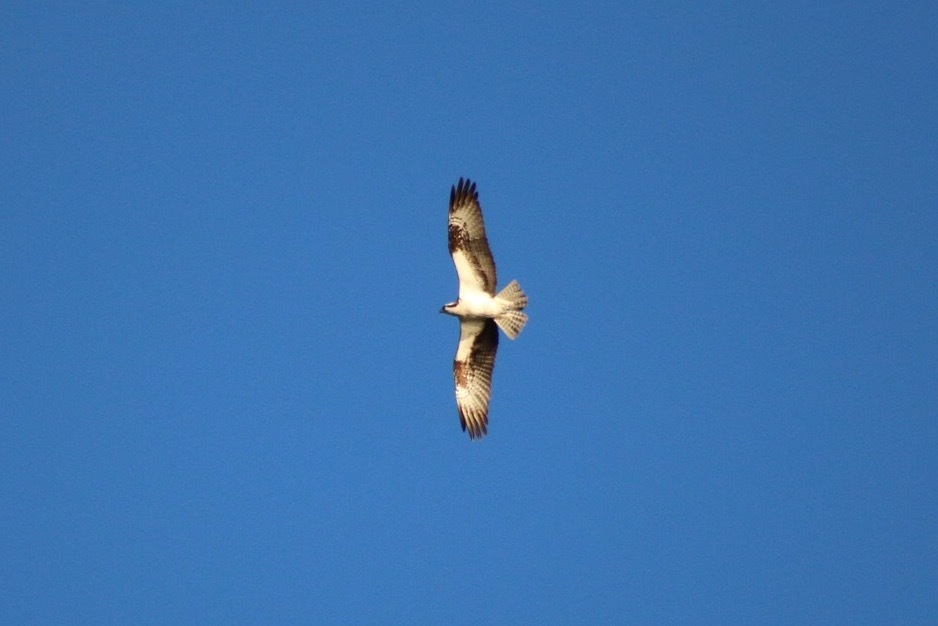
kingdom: Animalia
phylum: Chordata
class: Aves
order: Accipitriformes
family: Pandionidae
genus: Pandion
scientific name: Pandion haliaetus
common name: Osprey
